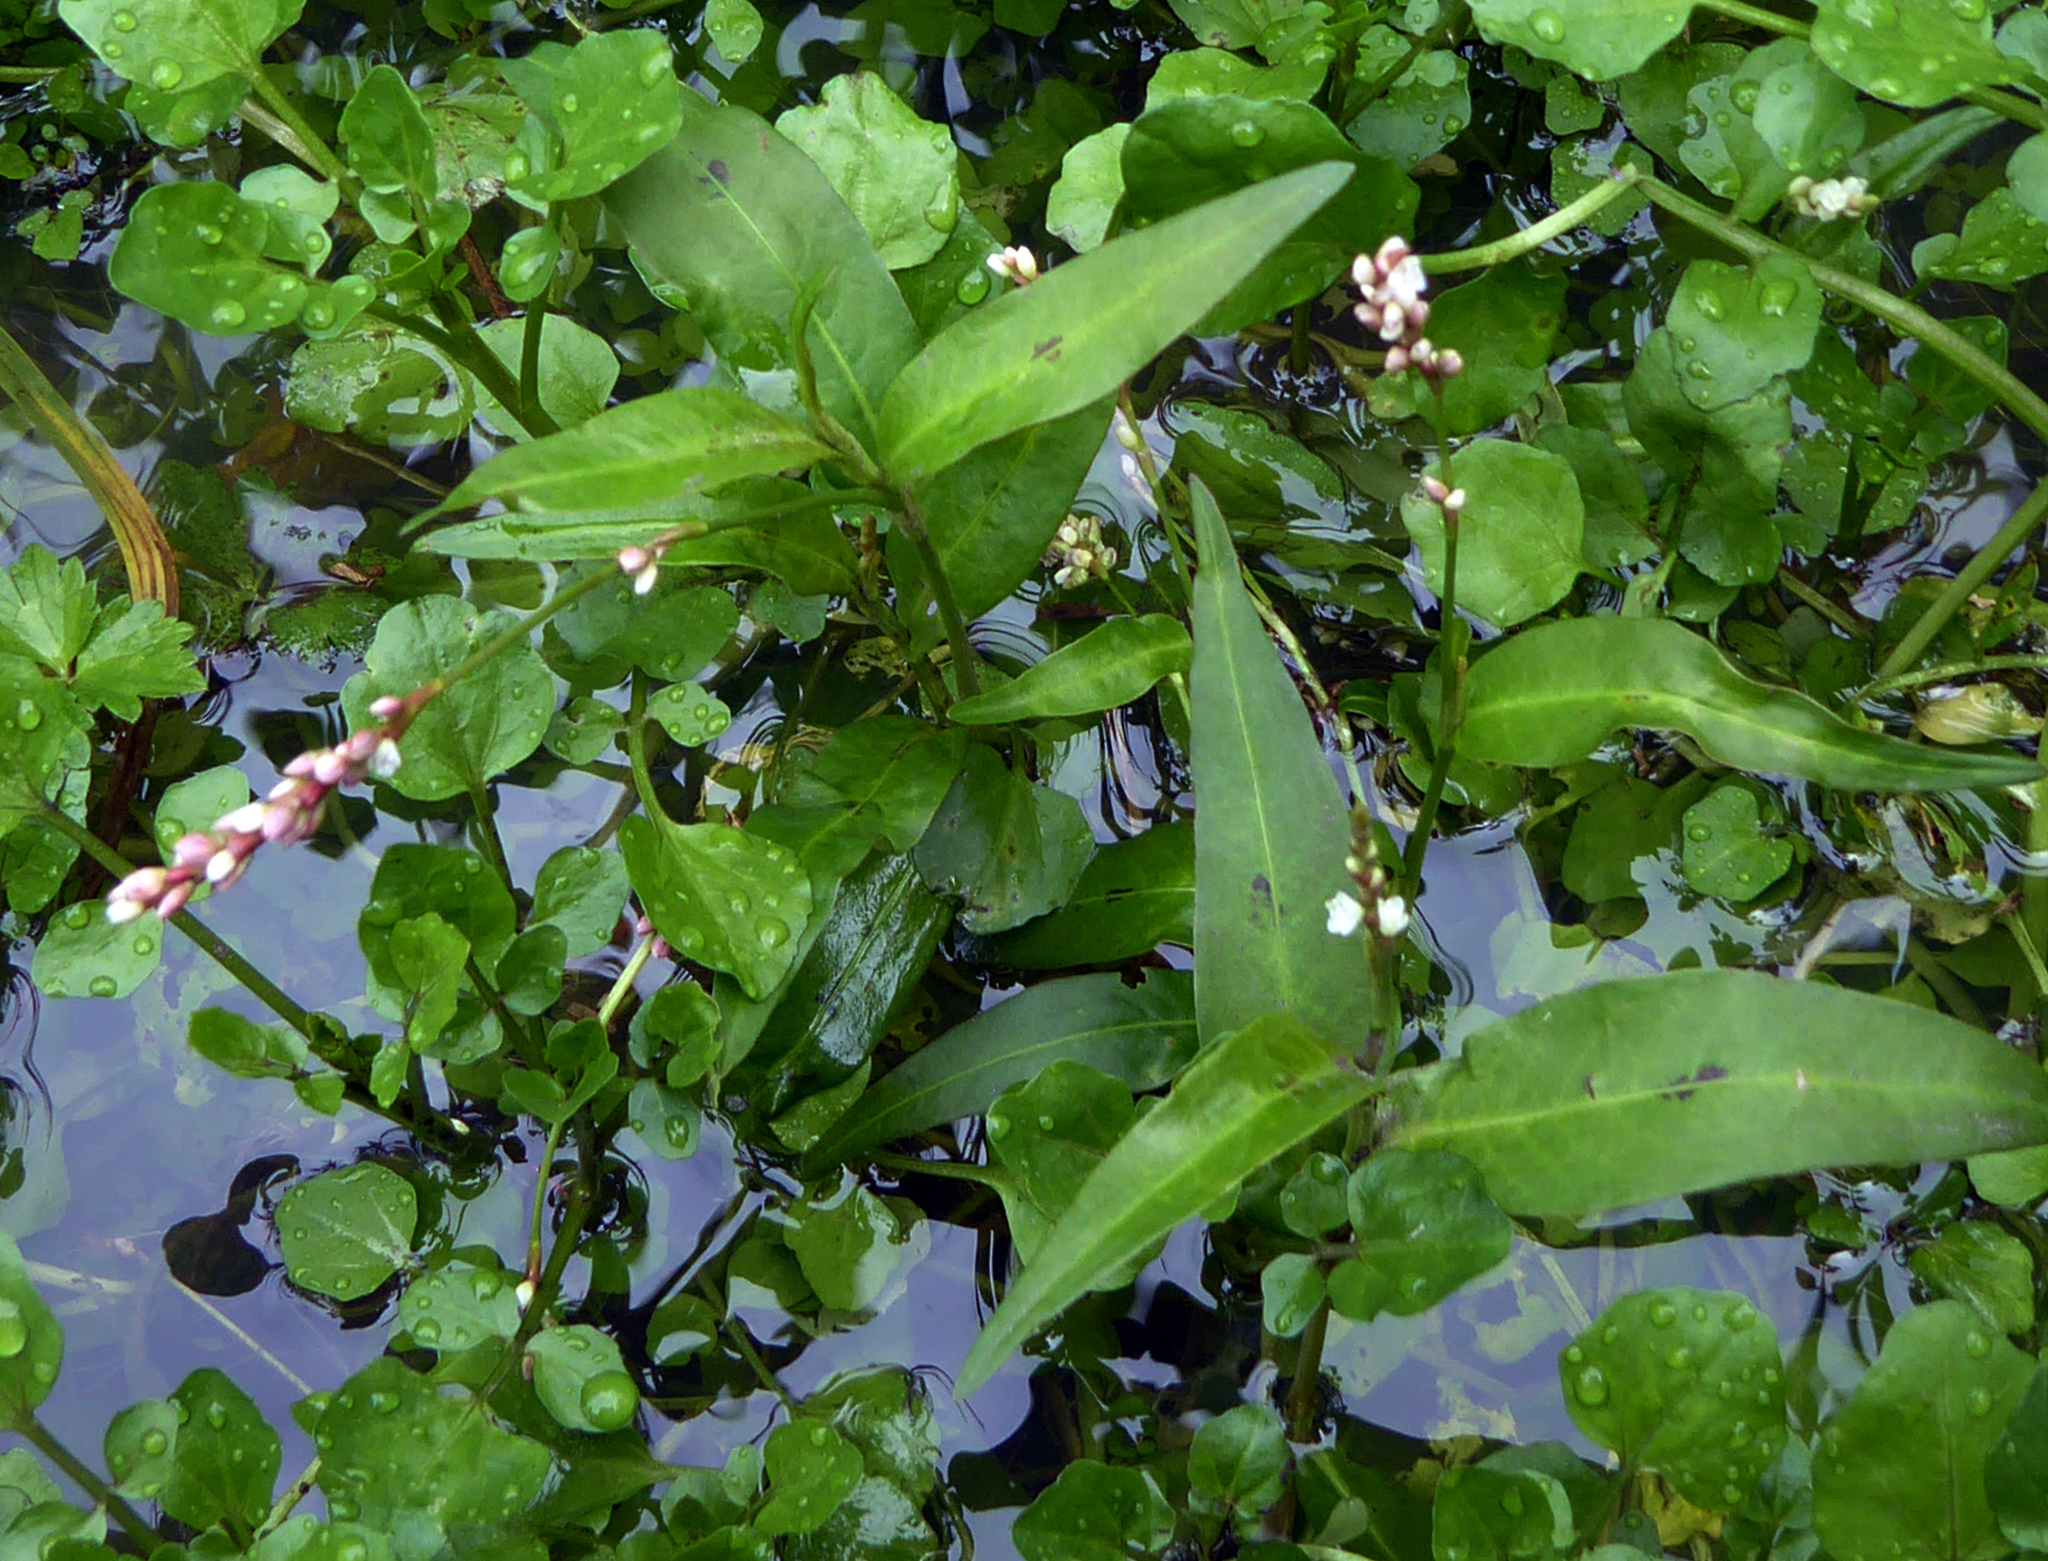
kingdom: Plantae
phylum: Tracheophyta
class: Magnoliopsida
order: Caryophyllales
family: Polygonaceae
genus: Persicaria
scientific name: Persicaria decipiens
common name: Willow-weed
